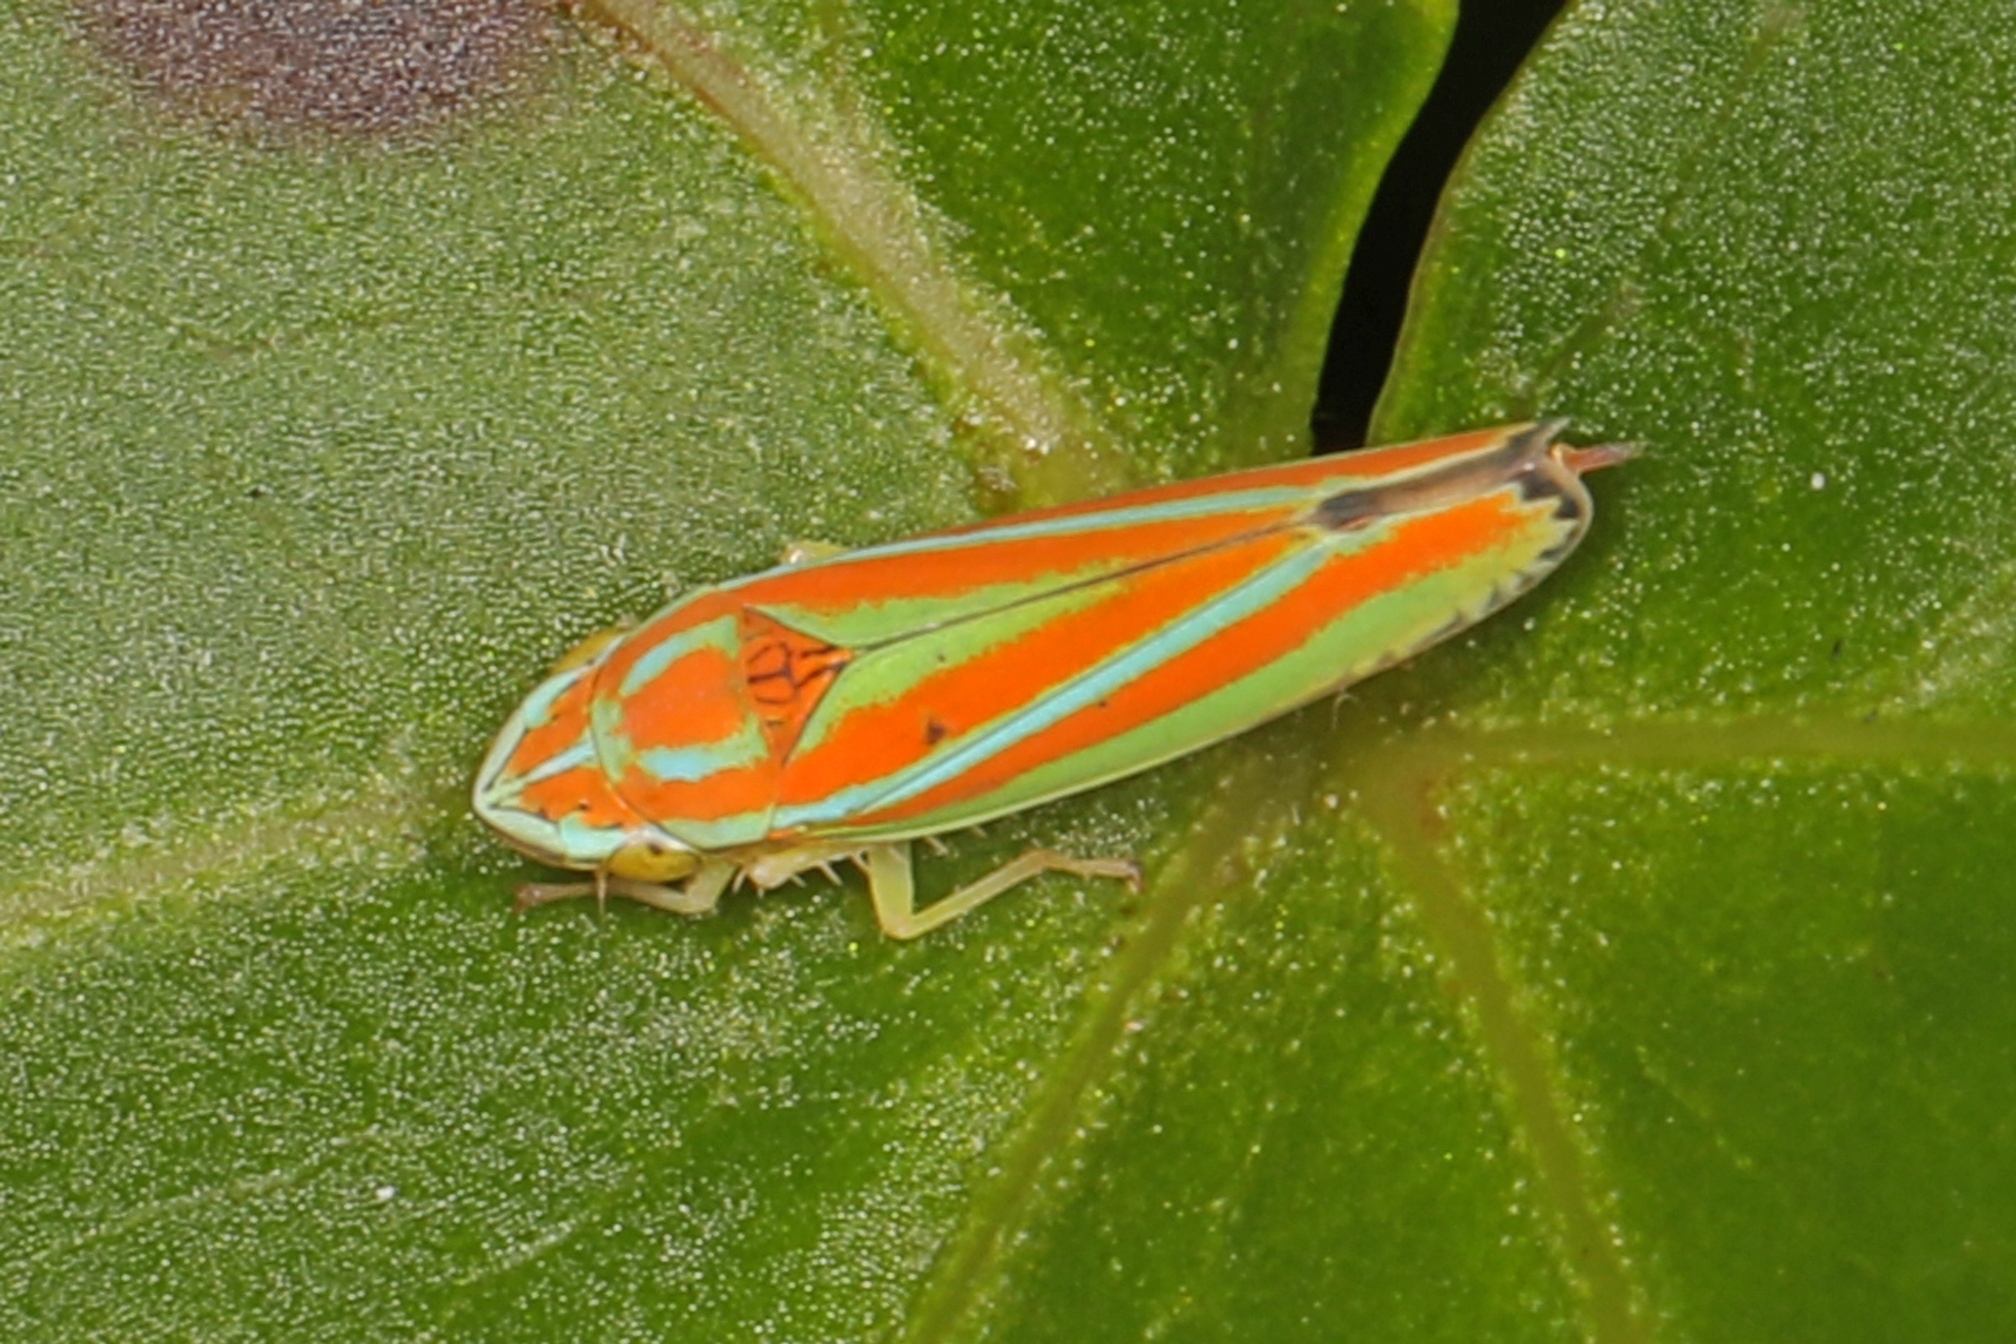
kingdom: Animalia
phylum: Arthropoda
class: Insecta
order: Hemiptera
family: Cicadellidae
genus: Graphocephala
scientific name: Graphocephala versuta
